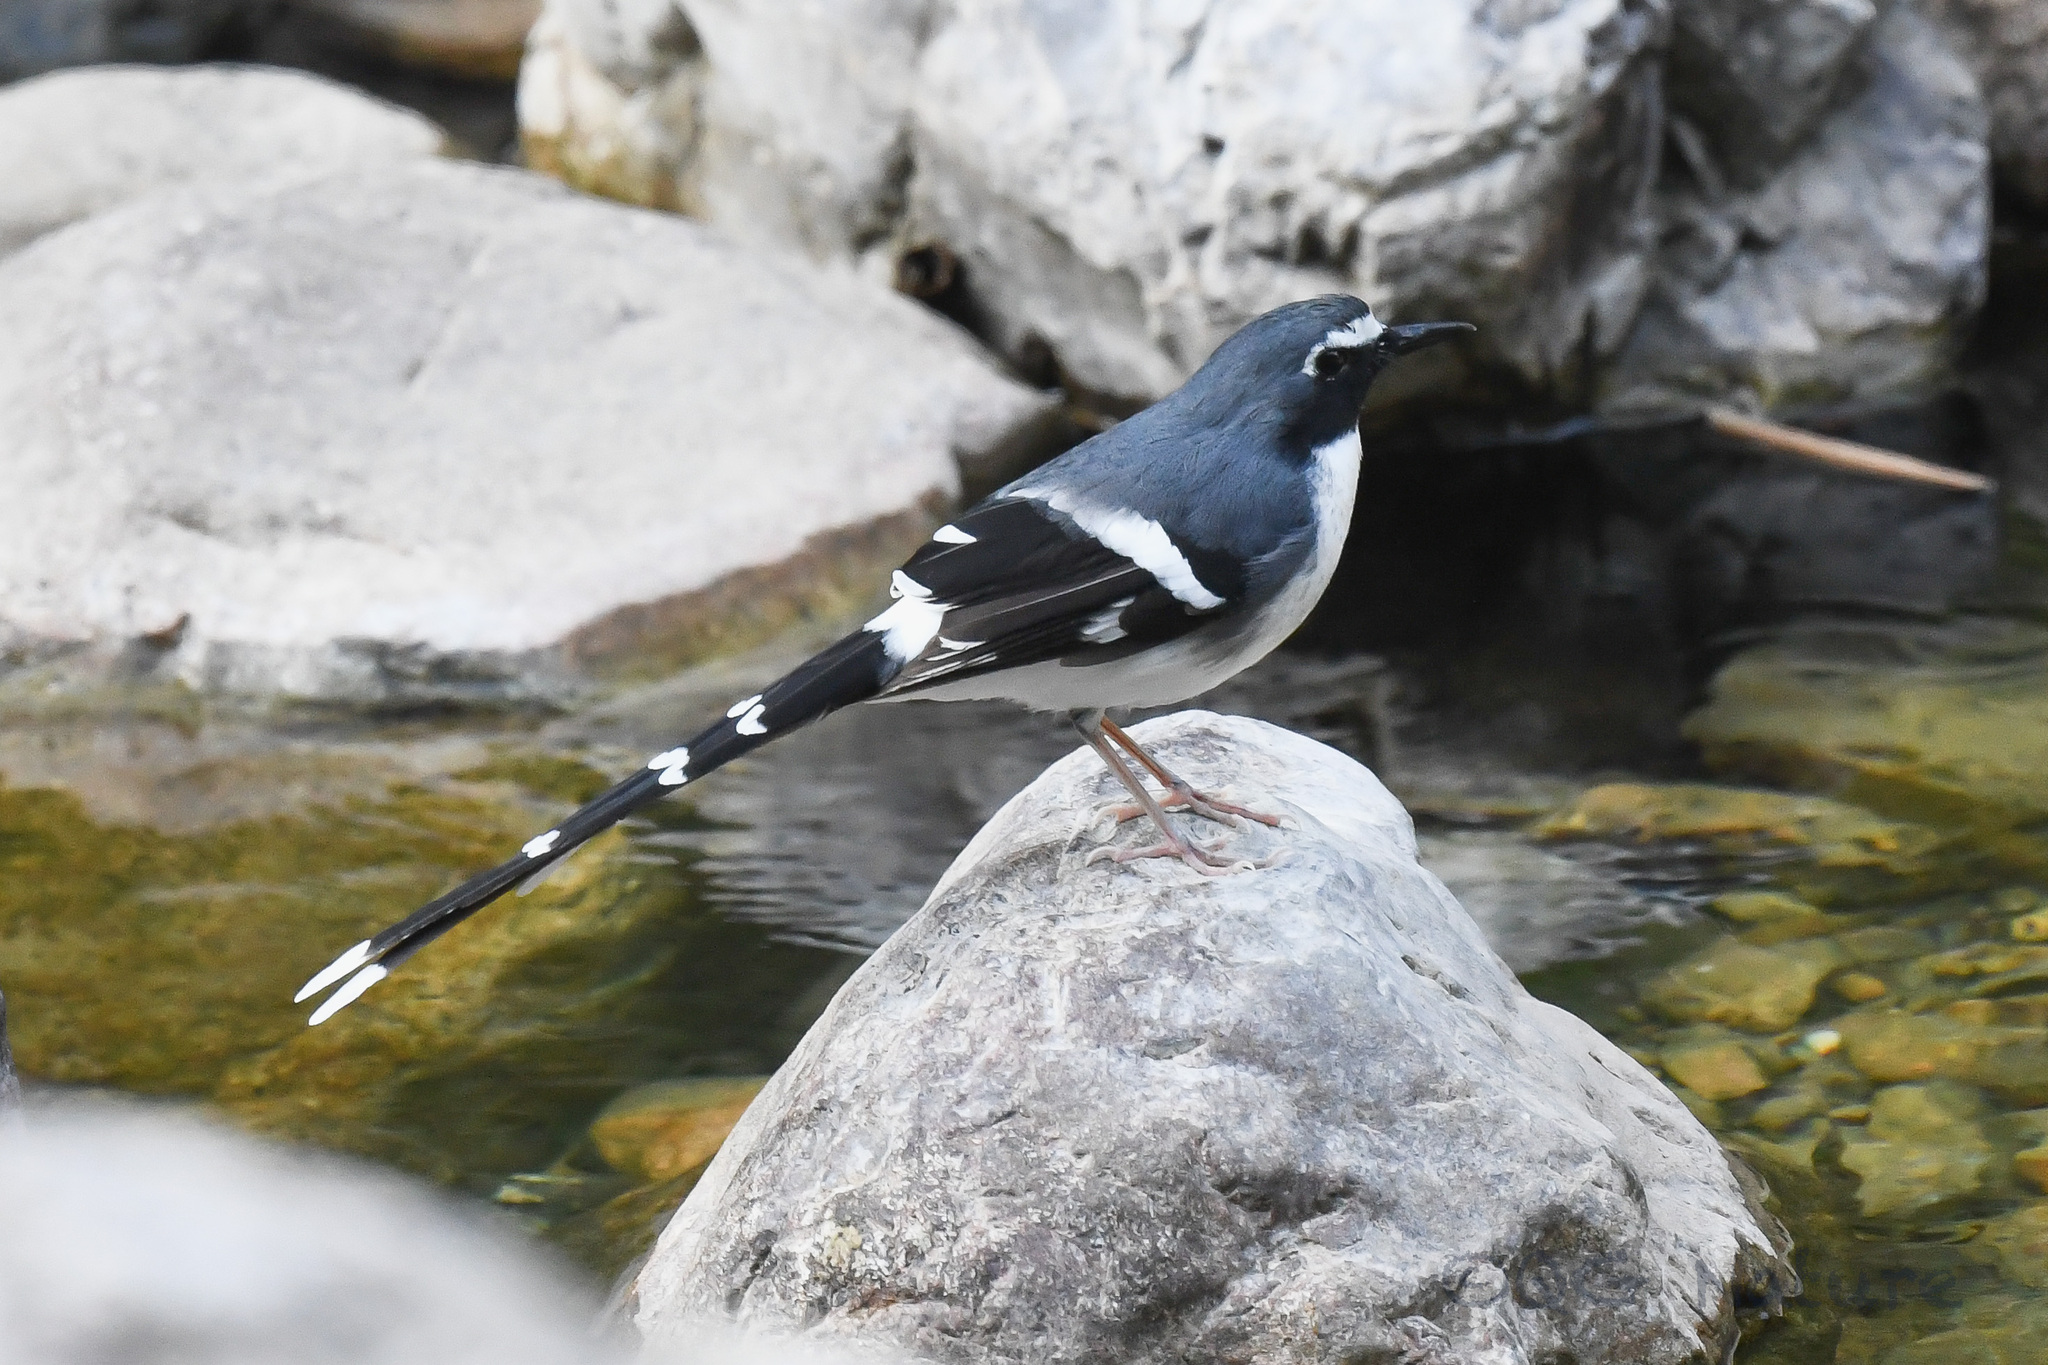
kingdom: Animalia
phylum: Chordata
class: Aves
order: Passeriformes
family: Muscicapidae
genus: Enicurus
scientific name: Enicurus schistaceus
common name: Slaty-backed forktail
